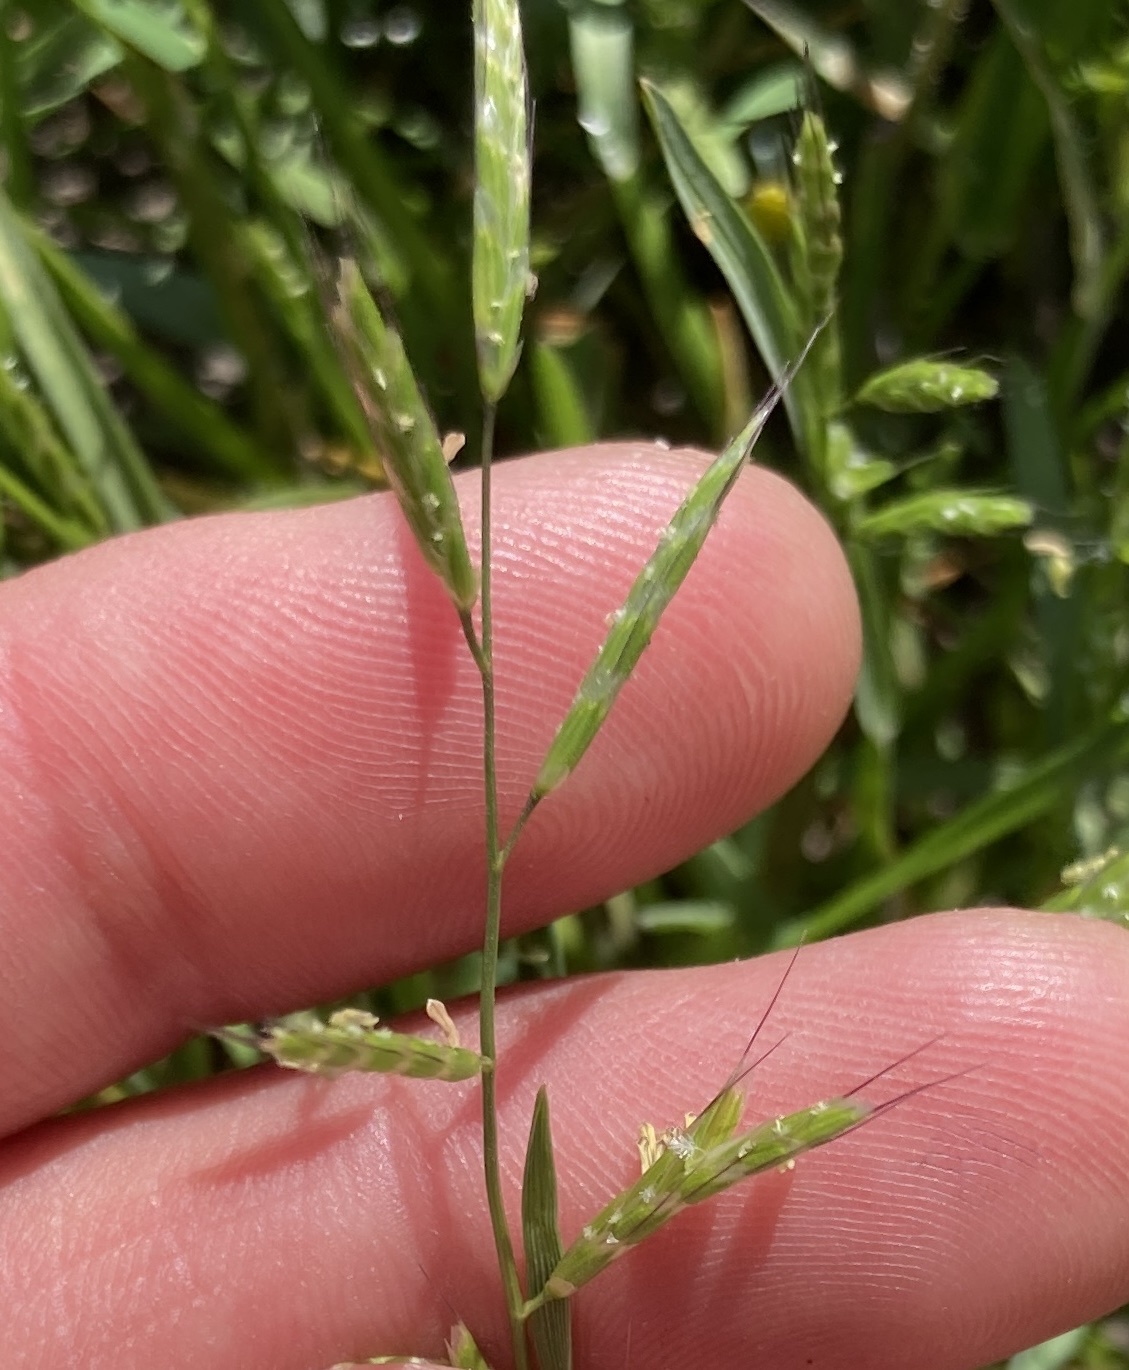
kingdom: Plantae
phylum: Tracheophyta
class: Liliopsida
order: Poales
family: Poaceae
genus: Pleuropogon
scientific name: Pleuropogon californicus
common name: California semaphore grass
